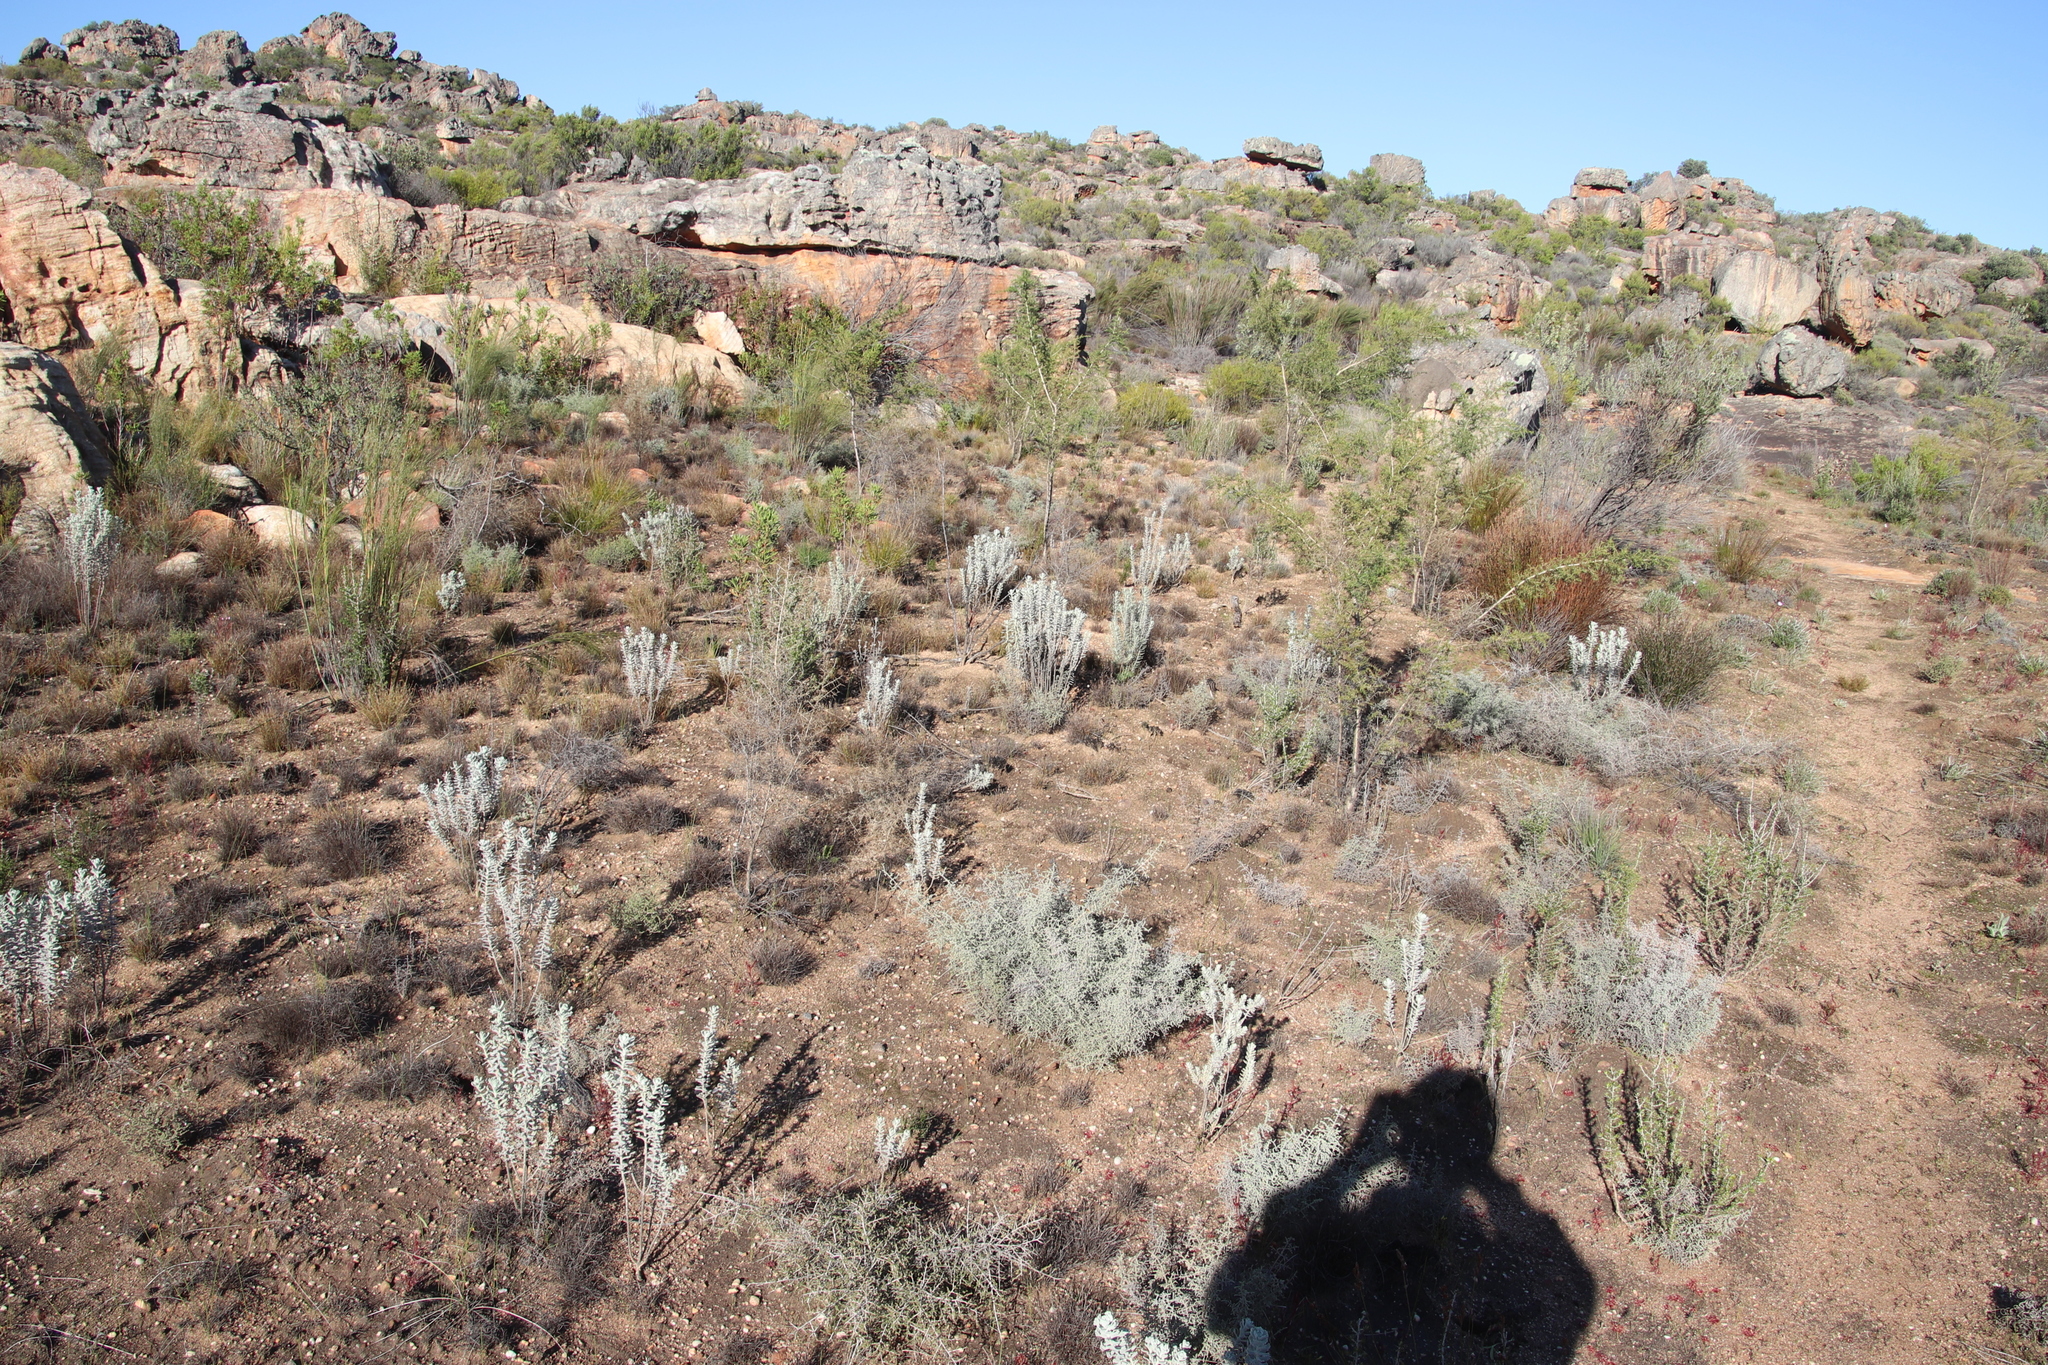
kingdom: Plantae
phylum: Tracheophyta
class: Magnoliopsida
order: Asterales
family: Asteraceae
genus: Athanasia
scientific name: Athanasia calophylla
